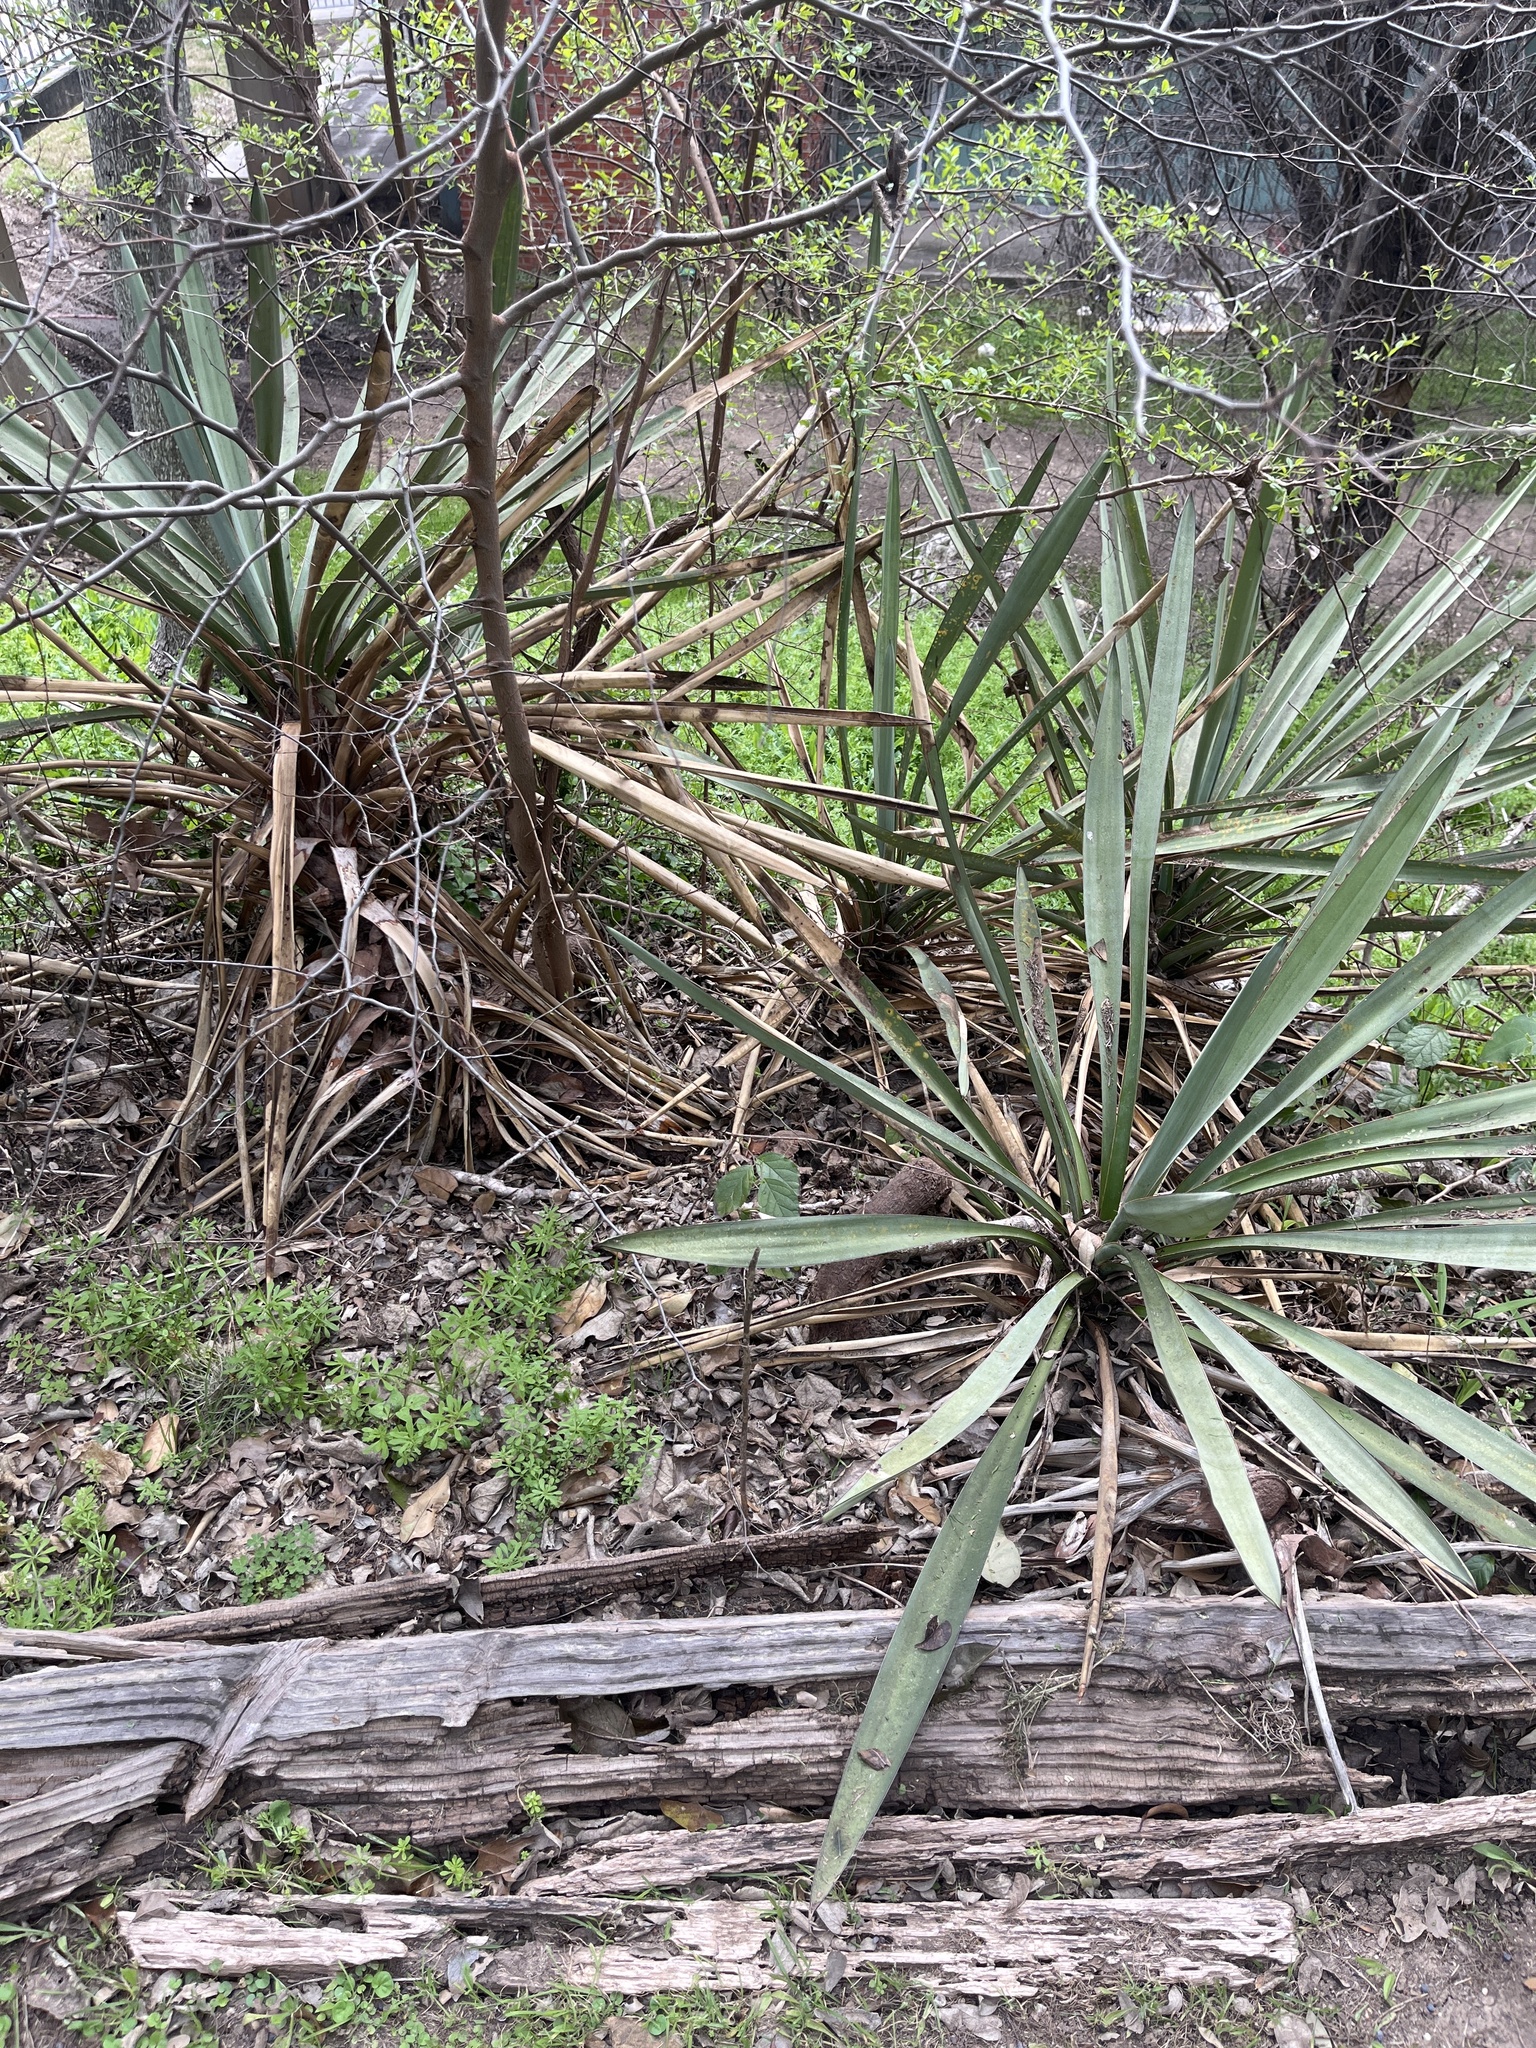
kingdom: Plantae
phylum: Tracheophyta
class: Liliopsida
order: Asparagales
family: Asparagaceae
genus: Yucca
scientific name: Yucca treculiana
